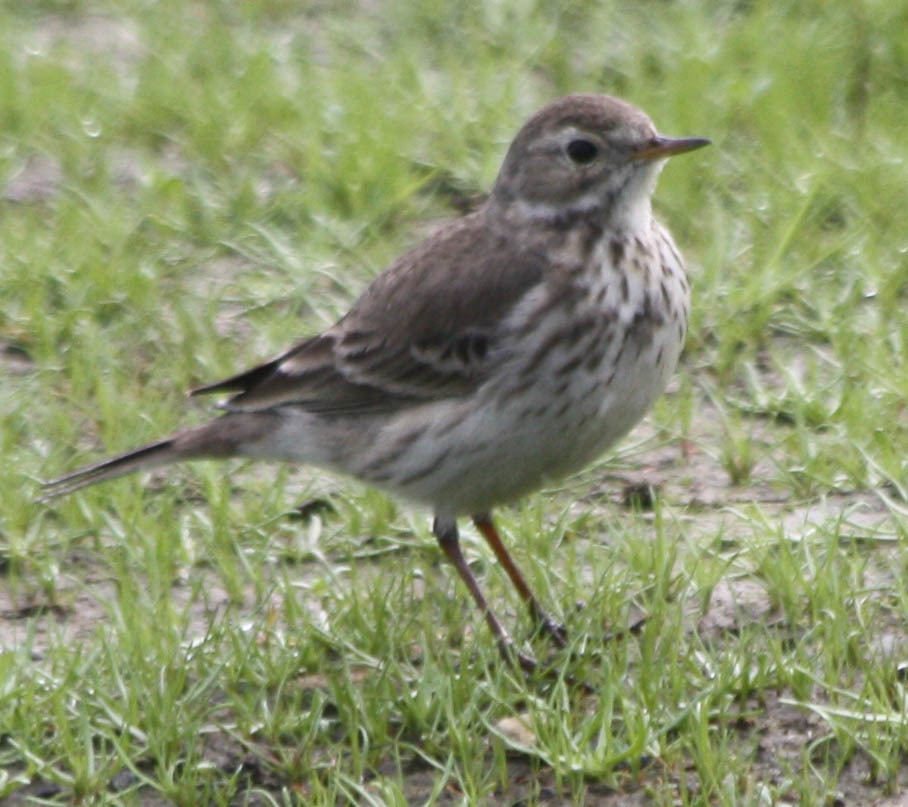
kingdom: Animalia
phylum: Chordata
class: Aves
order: Passeriformes
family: Motacillidae
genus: Anthus
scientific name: Anthus rubescens
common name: Buff-bellied pipit
